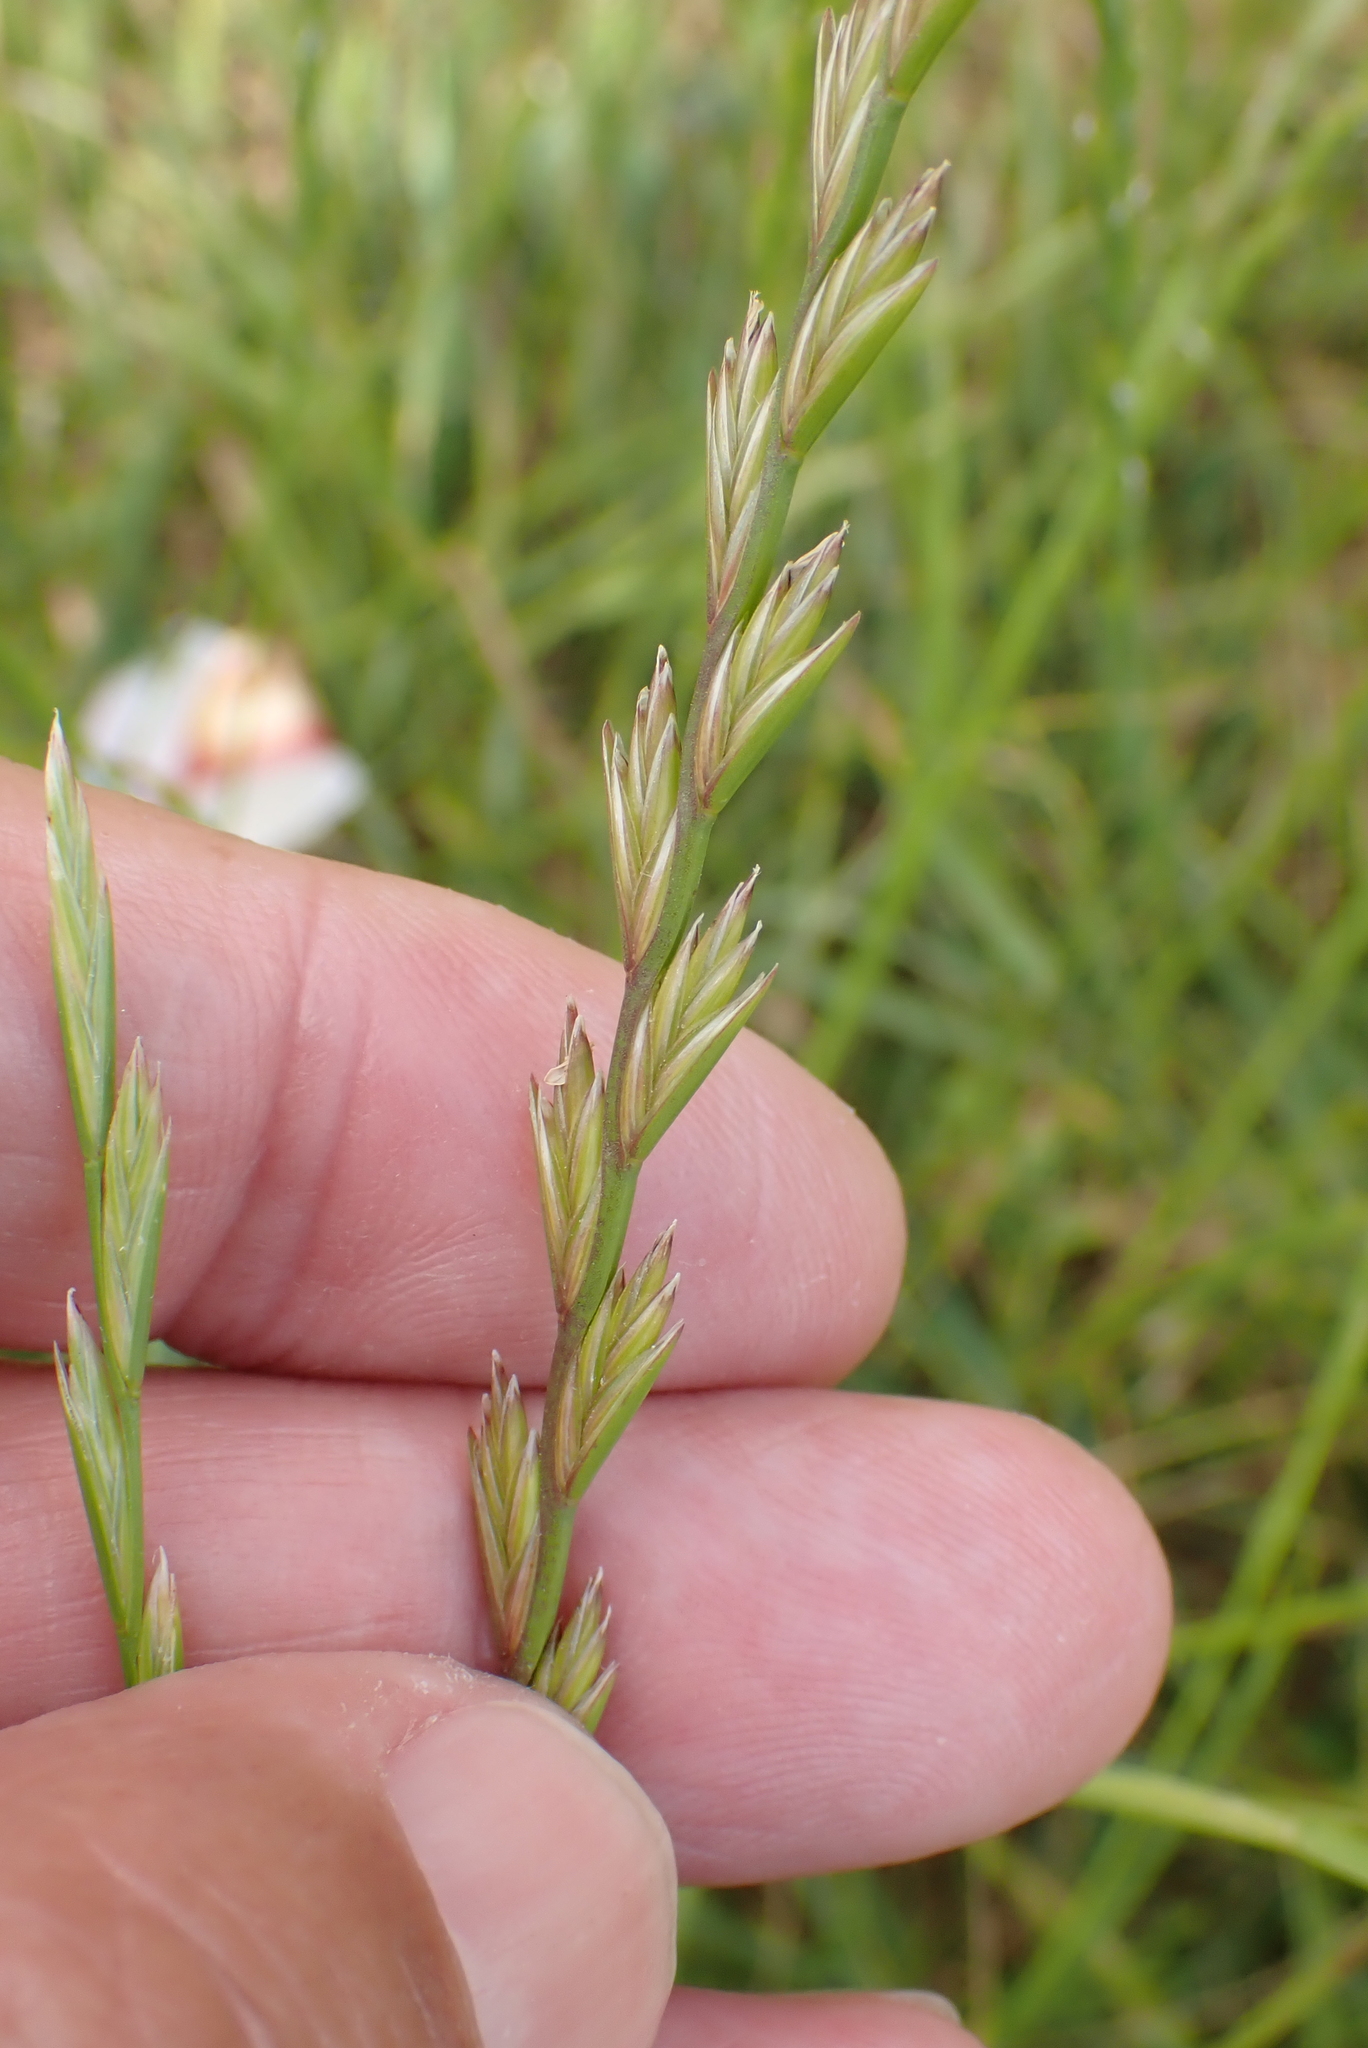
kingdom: Plantae
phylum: Tracheophyta
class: Liliopsida
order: Poales
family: Poaceae
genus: Lolium
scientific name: Lolium perenne
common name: Perennial ryegrass
